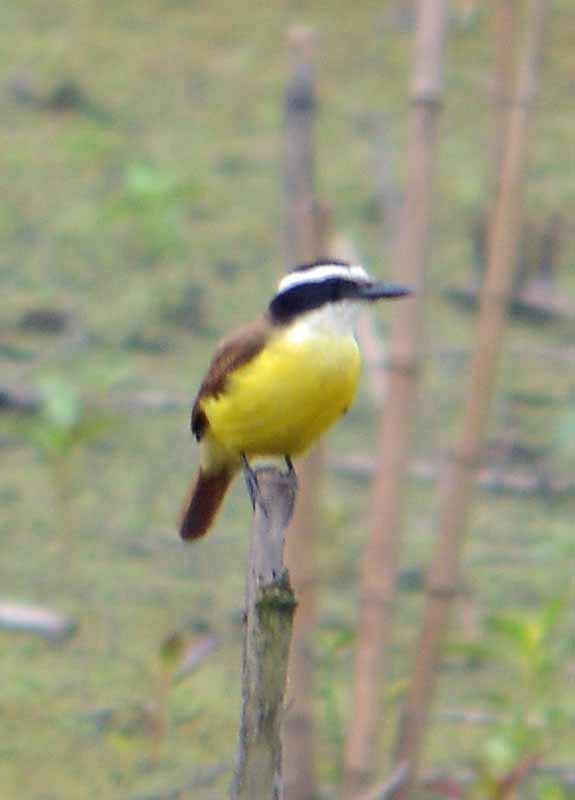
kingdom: Animalia
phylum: Chordata
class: Aves
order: Passeriformes
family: Tyrannidae
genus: Pitangus
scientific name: Pitangus sulphuratus
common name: Great kiskadee
